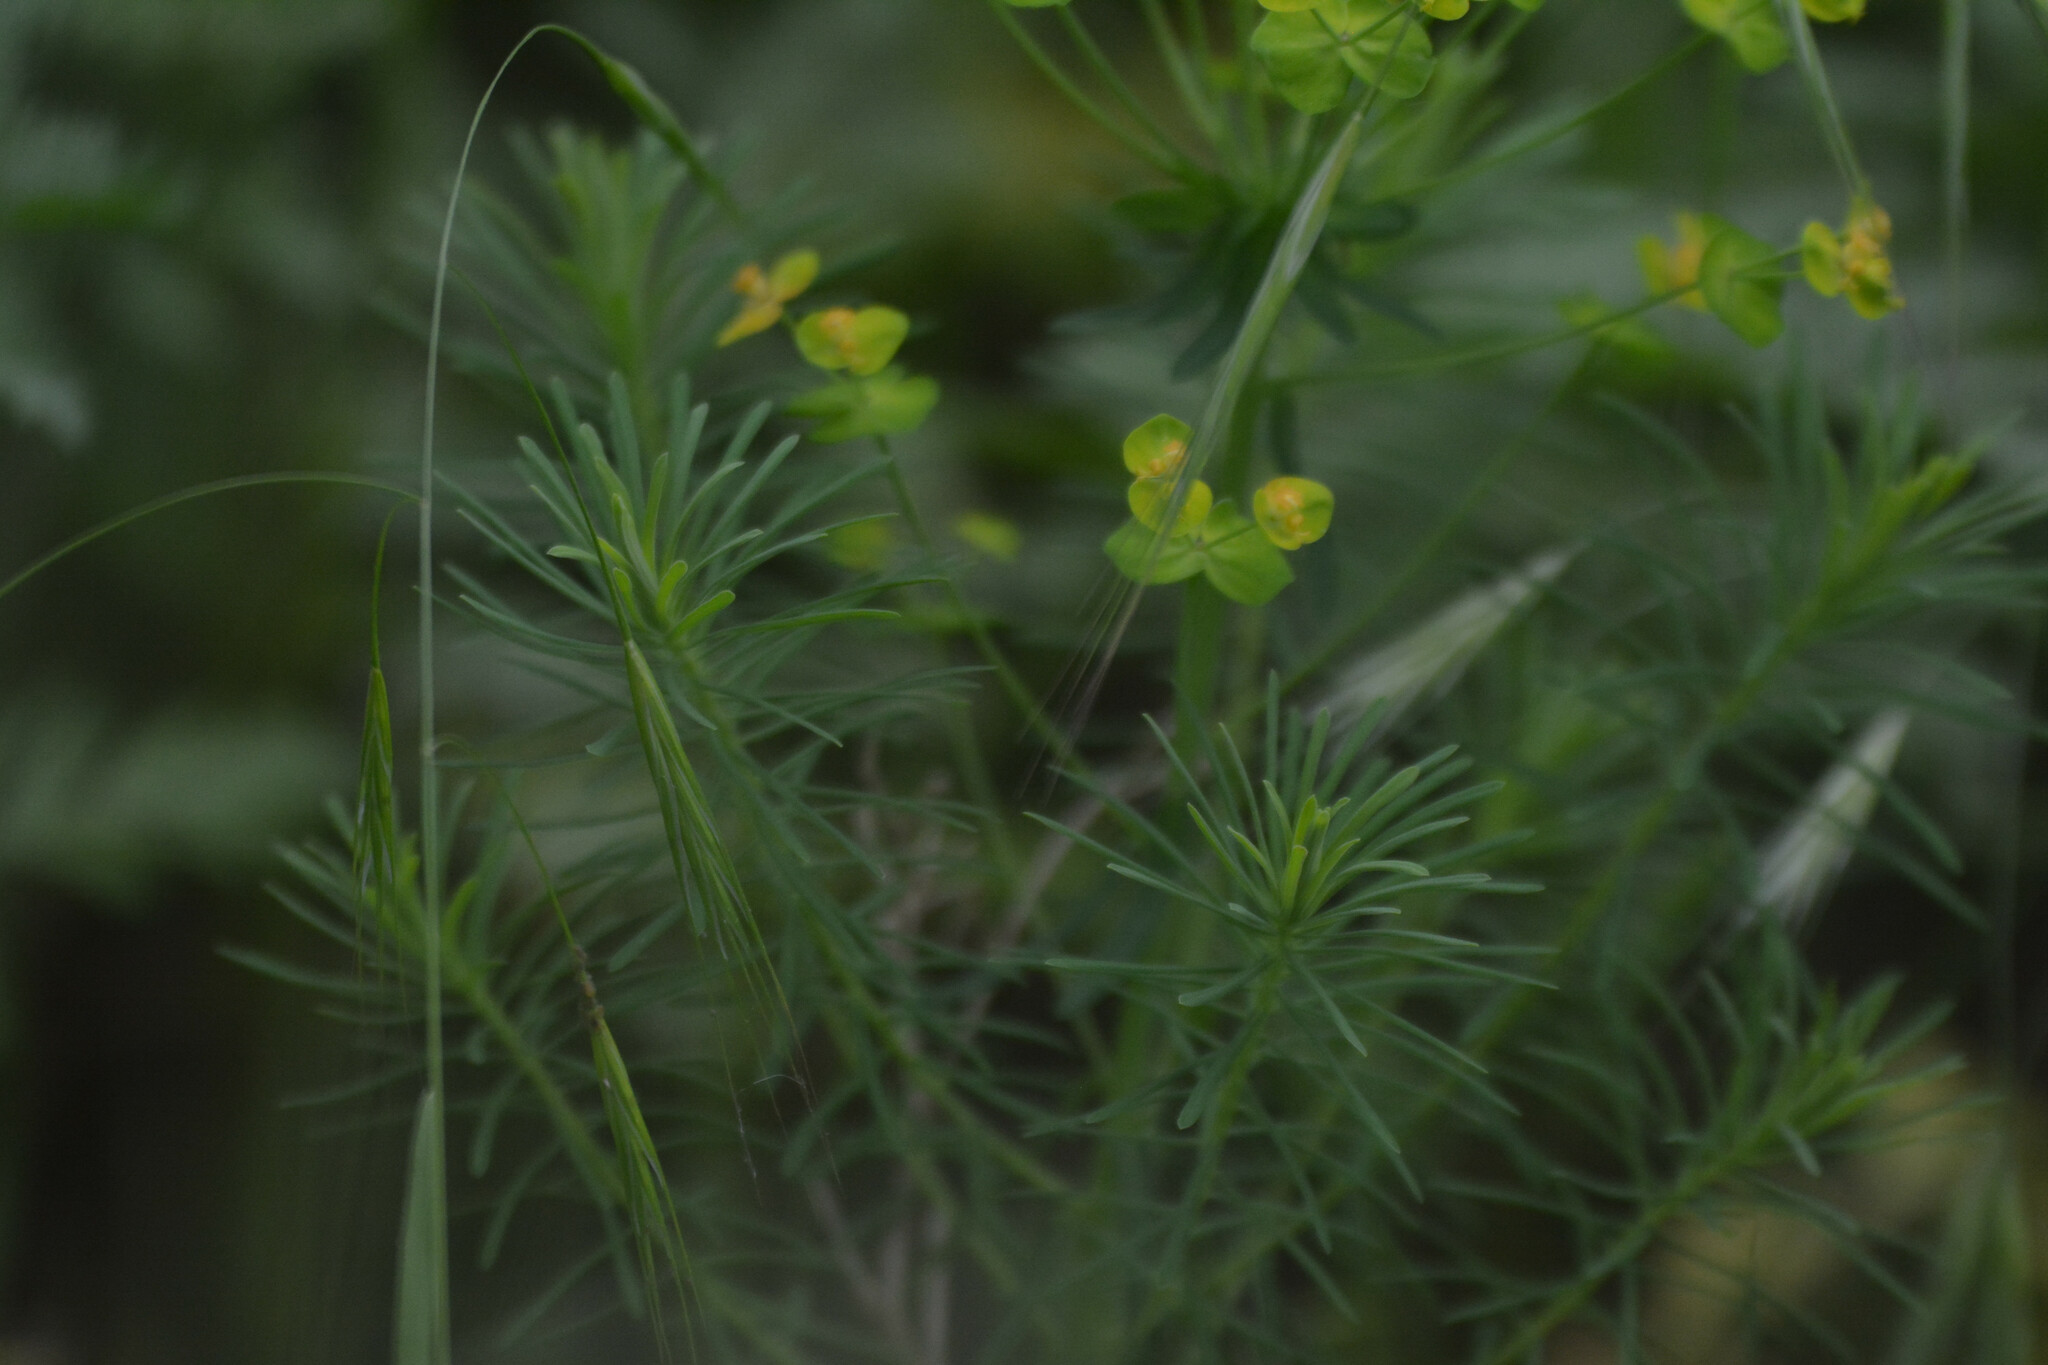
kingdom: Plantae
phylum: Tracheophyta
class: Magnoliopsida
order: Malpighiales
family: Euphorbiaceae
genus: Euphorbia
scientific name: Euphorbia cyparissias
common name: Cypress spurge
